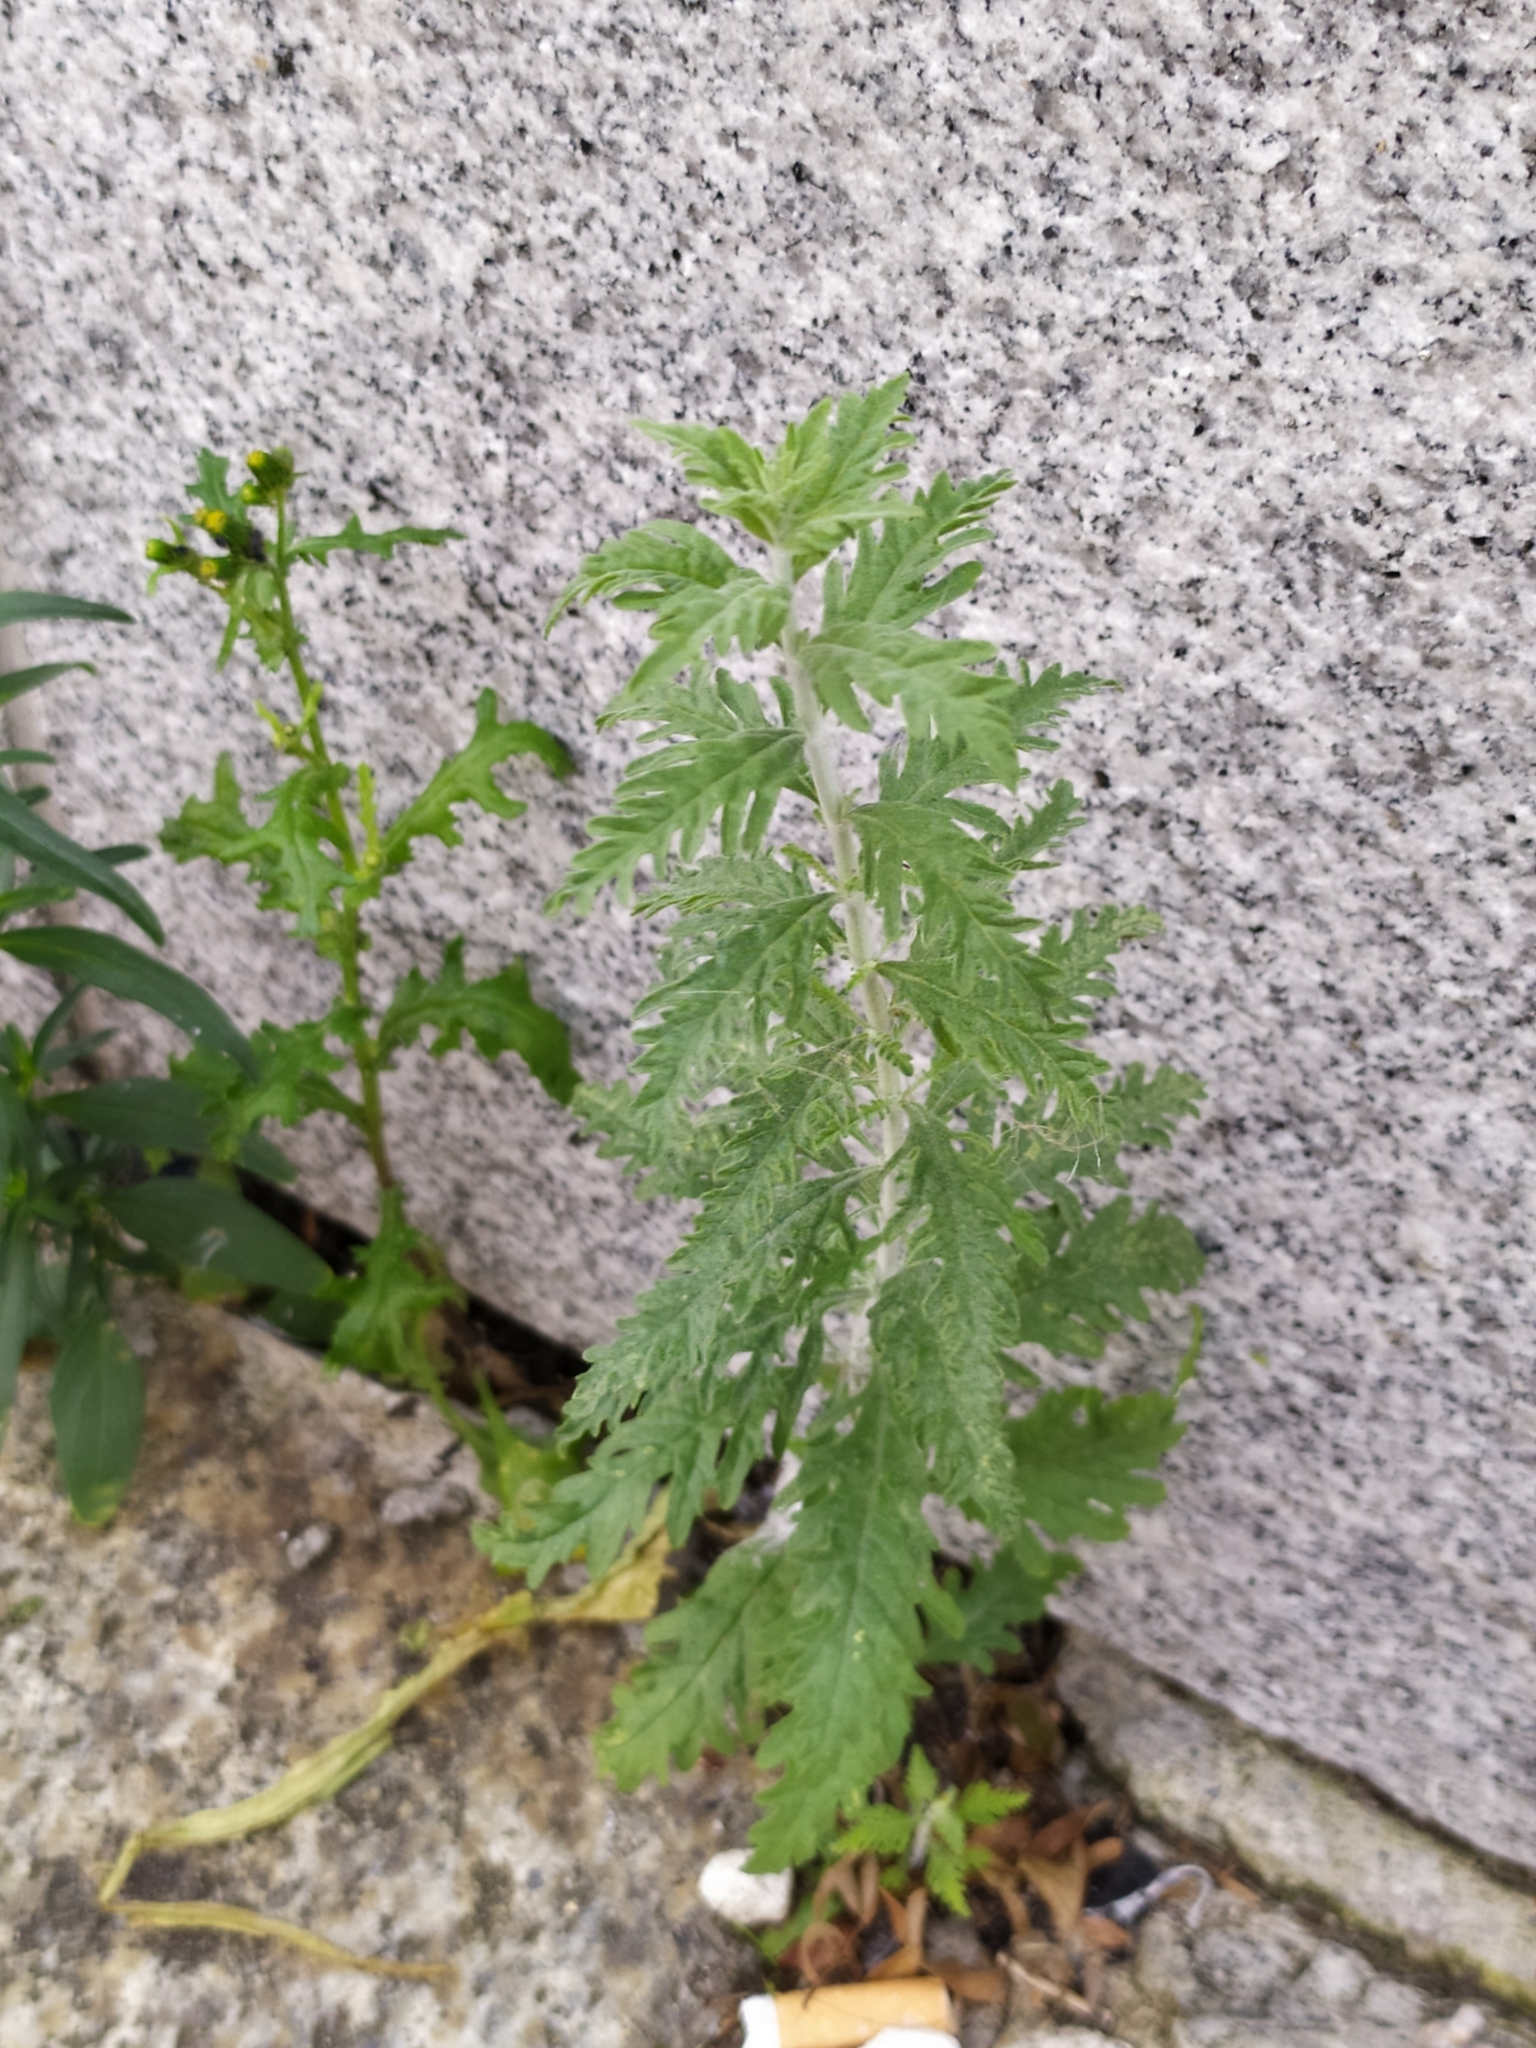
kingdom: Plantae
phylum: Tracheophyta
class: Magnoliopsida
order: Lamiales
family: Lamiaceae
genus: Salvia
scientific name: Salvia
